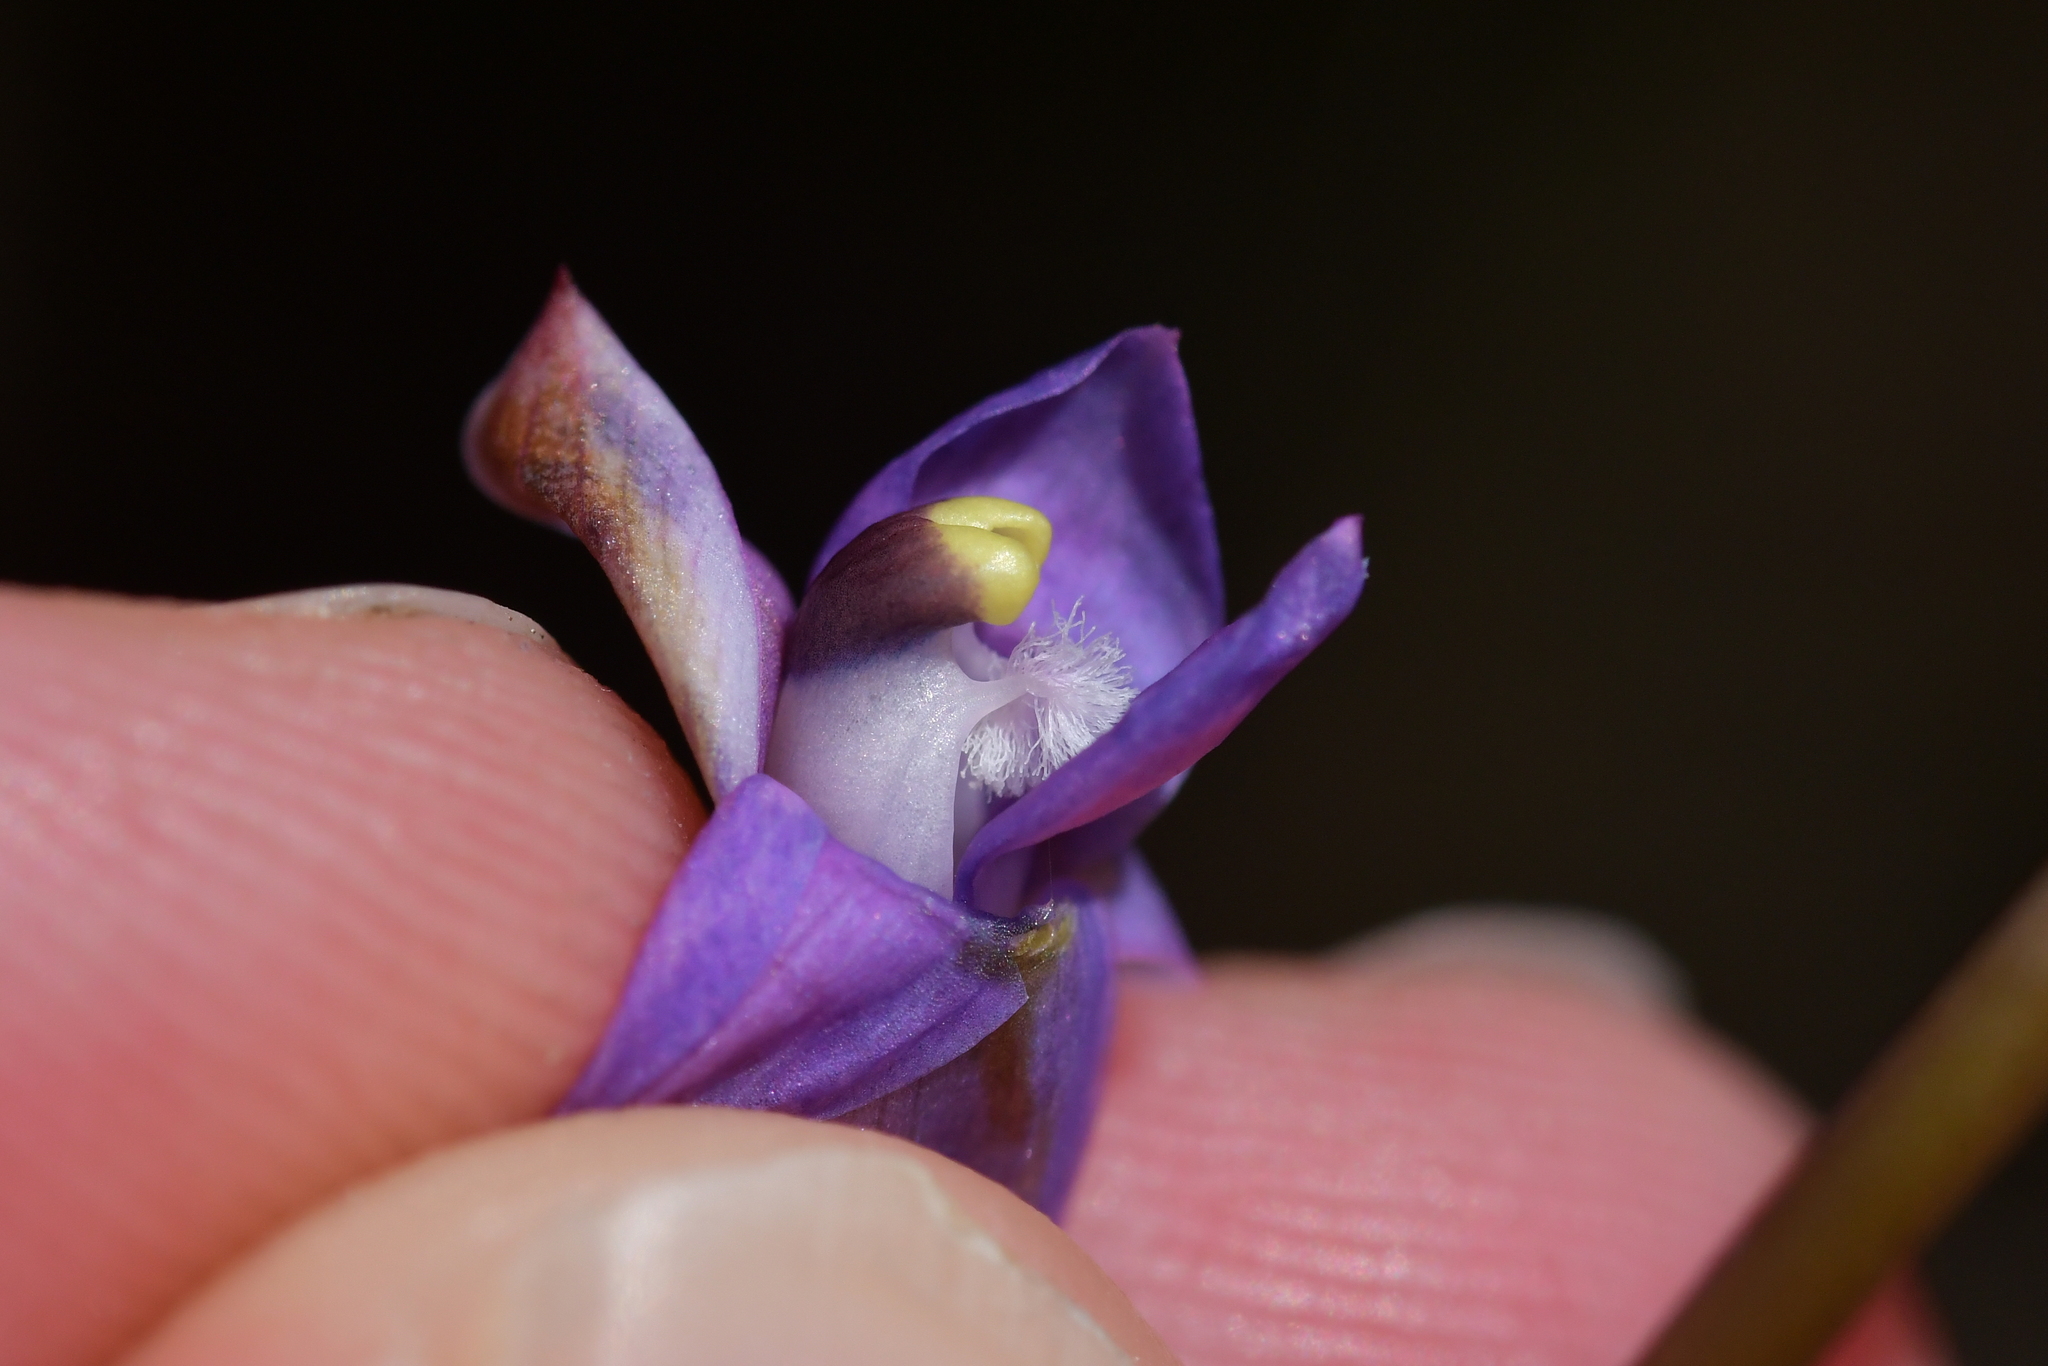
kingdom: Plantae
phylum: Tracheophyta
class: Liliopsida
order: Asparagales
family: Orchidaceae
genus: Thelymitra
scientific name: Thelymitra pauciflora
